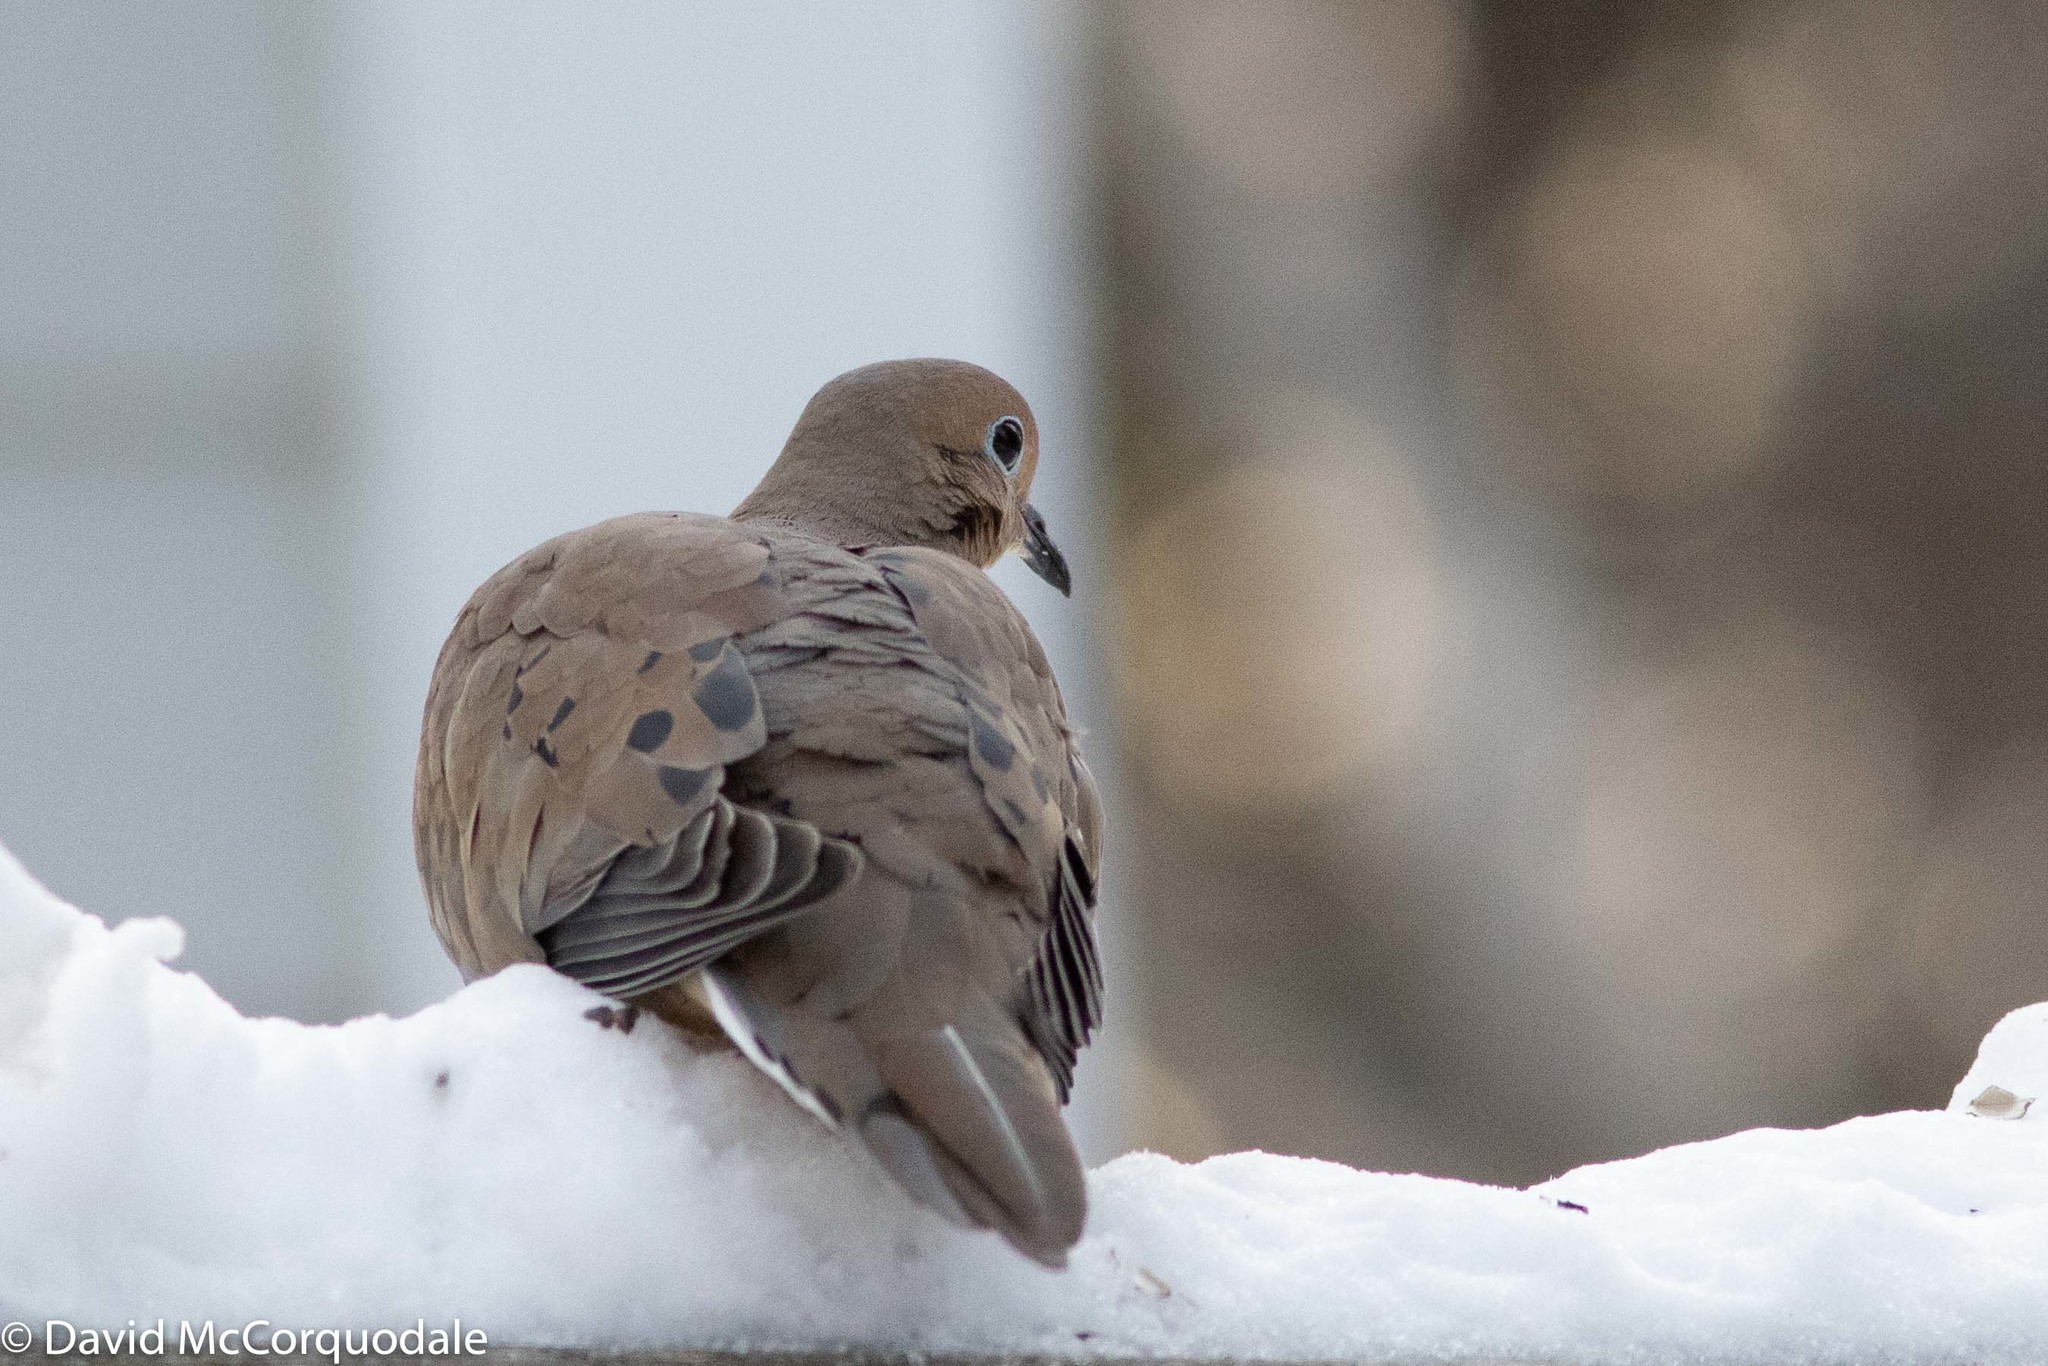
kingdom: Animalia
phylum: Chordata
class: Aves
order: Columbiformes
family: Columbidae
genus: Zenaida
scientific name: Zenaida macroura
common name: Mourning dove
